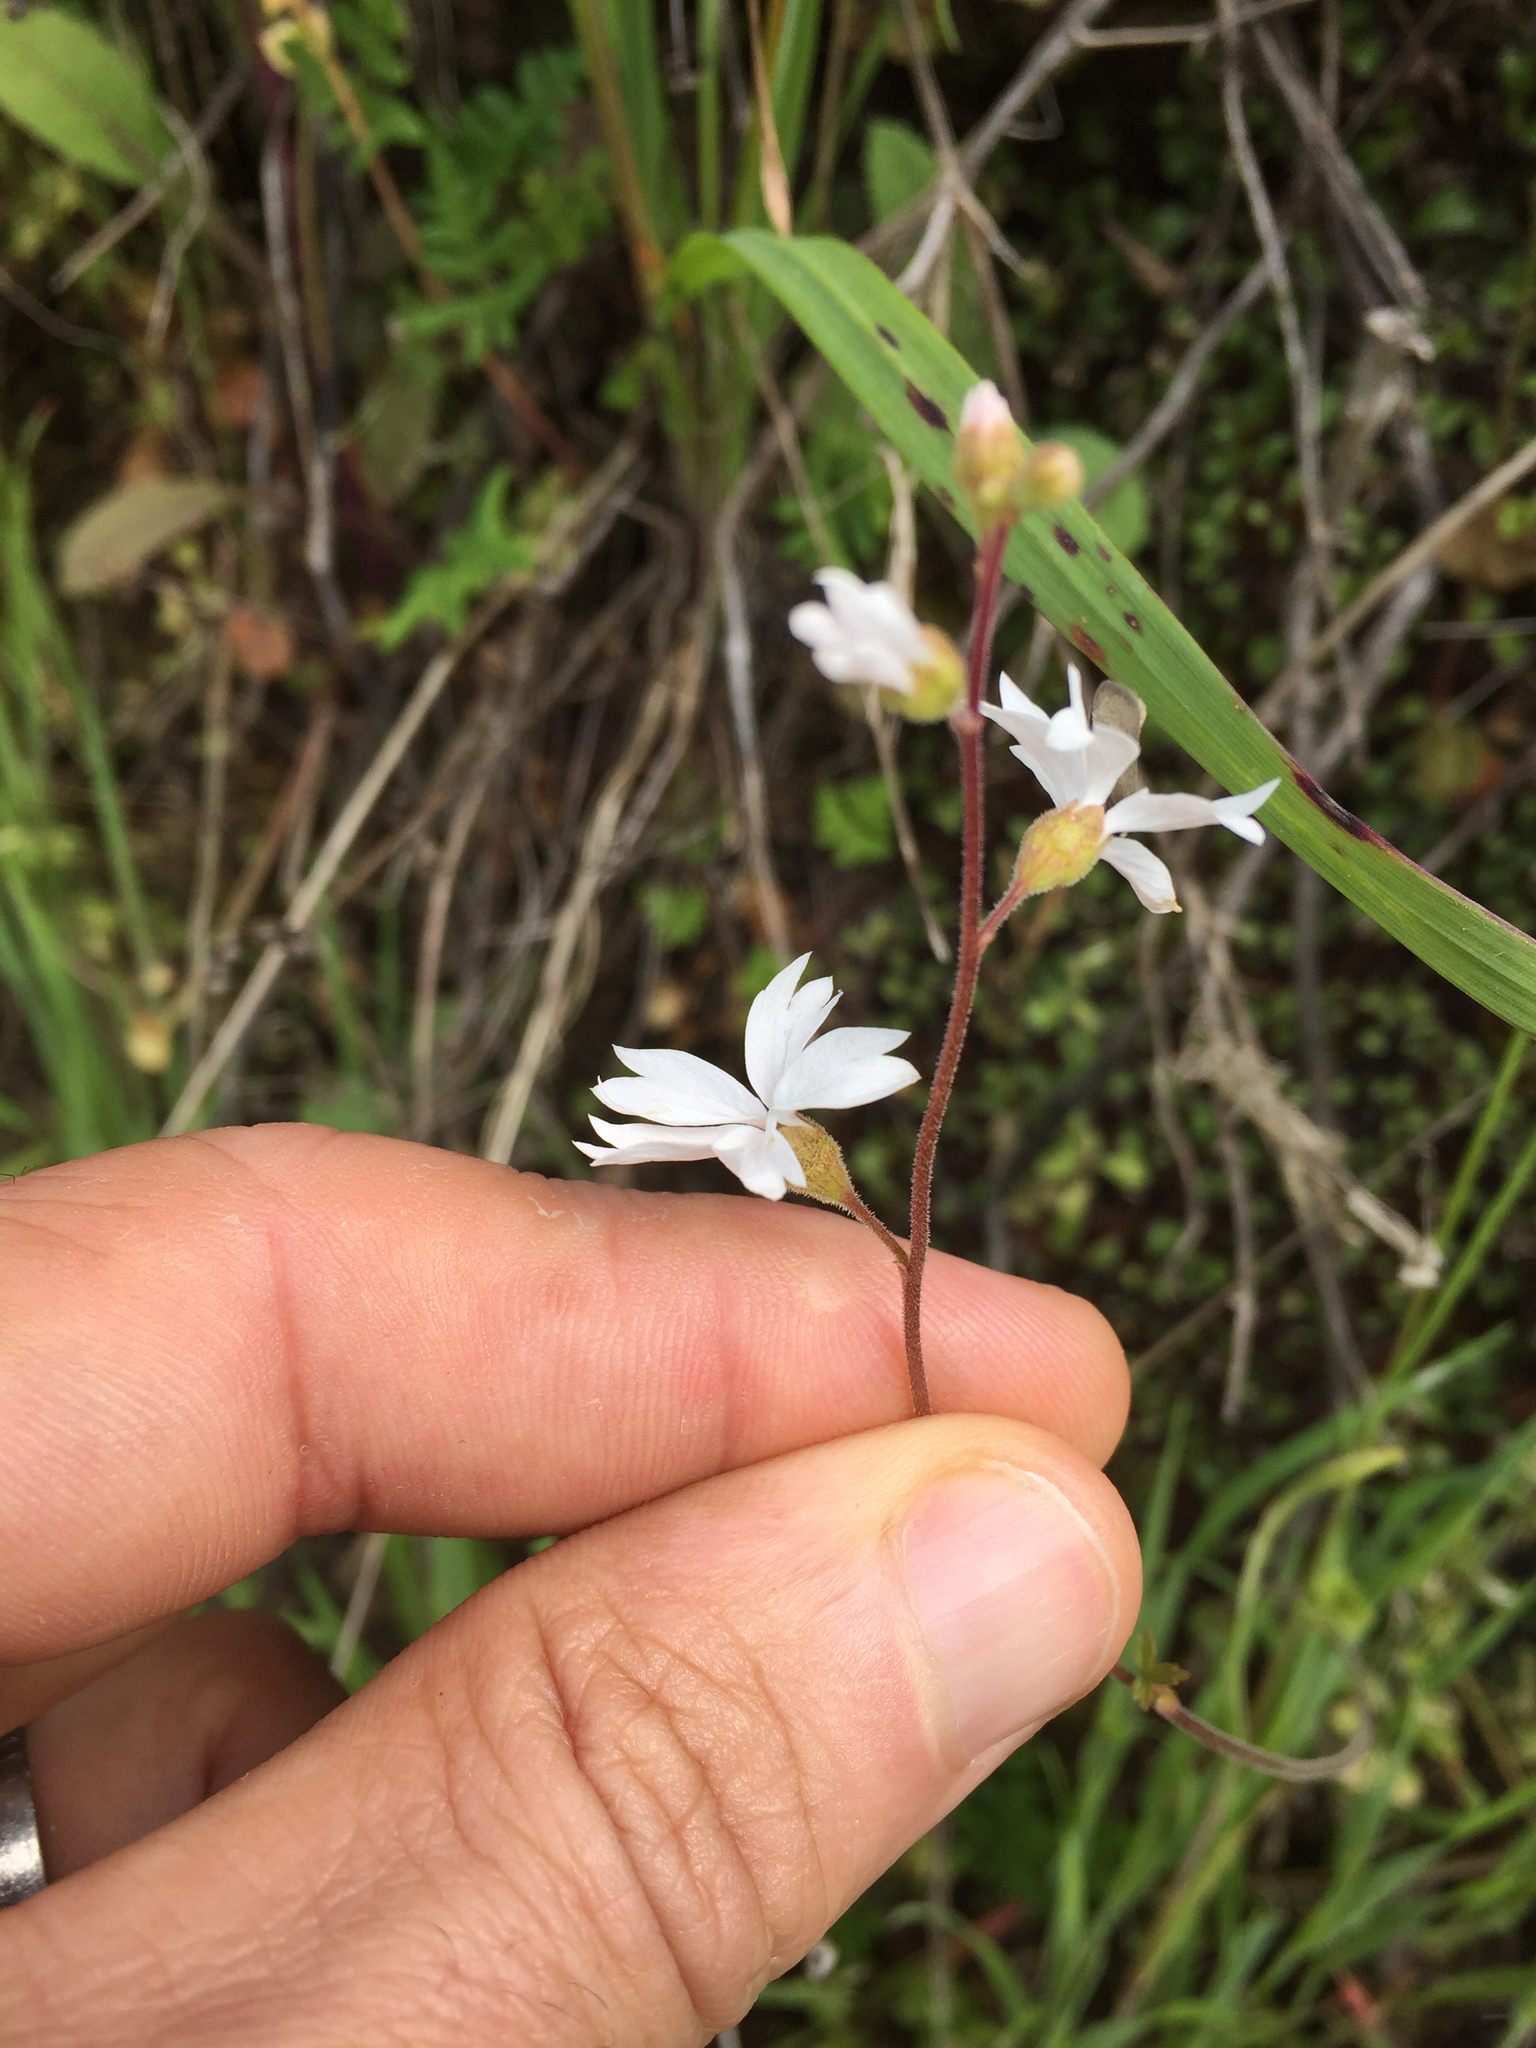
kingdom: Plantae
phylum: Tracheophyta
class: Magnoliopsida
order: Saxifragales
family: Saxifragaceae
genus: Lithophragma
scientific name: Lithophragma affine
